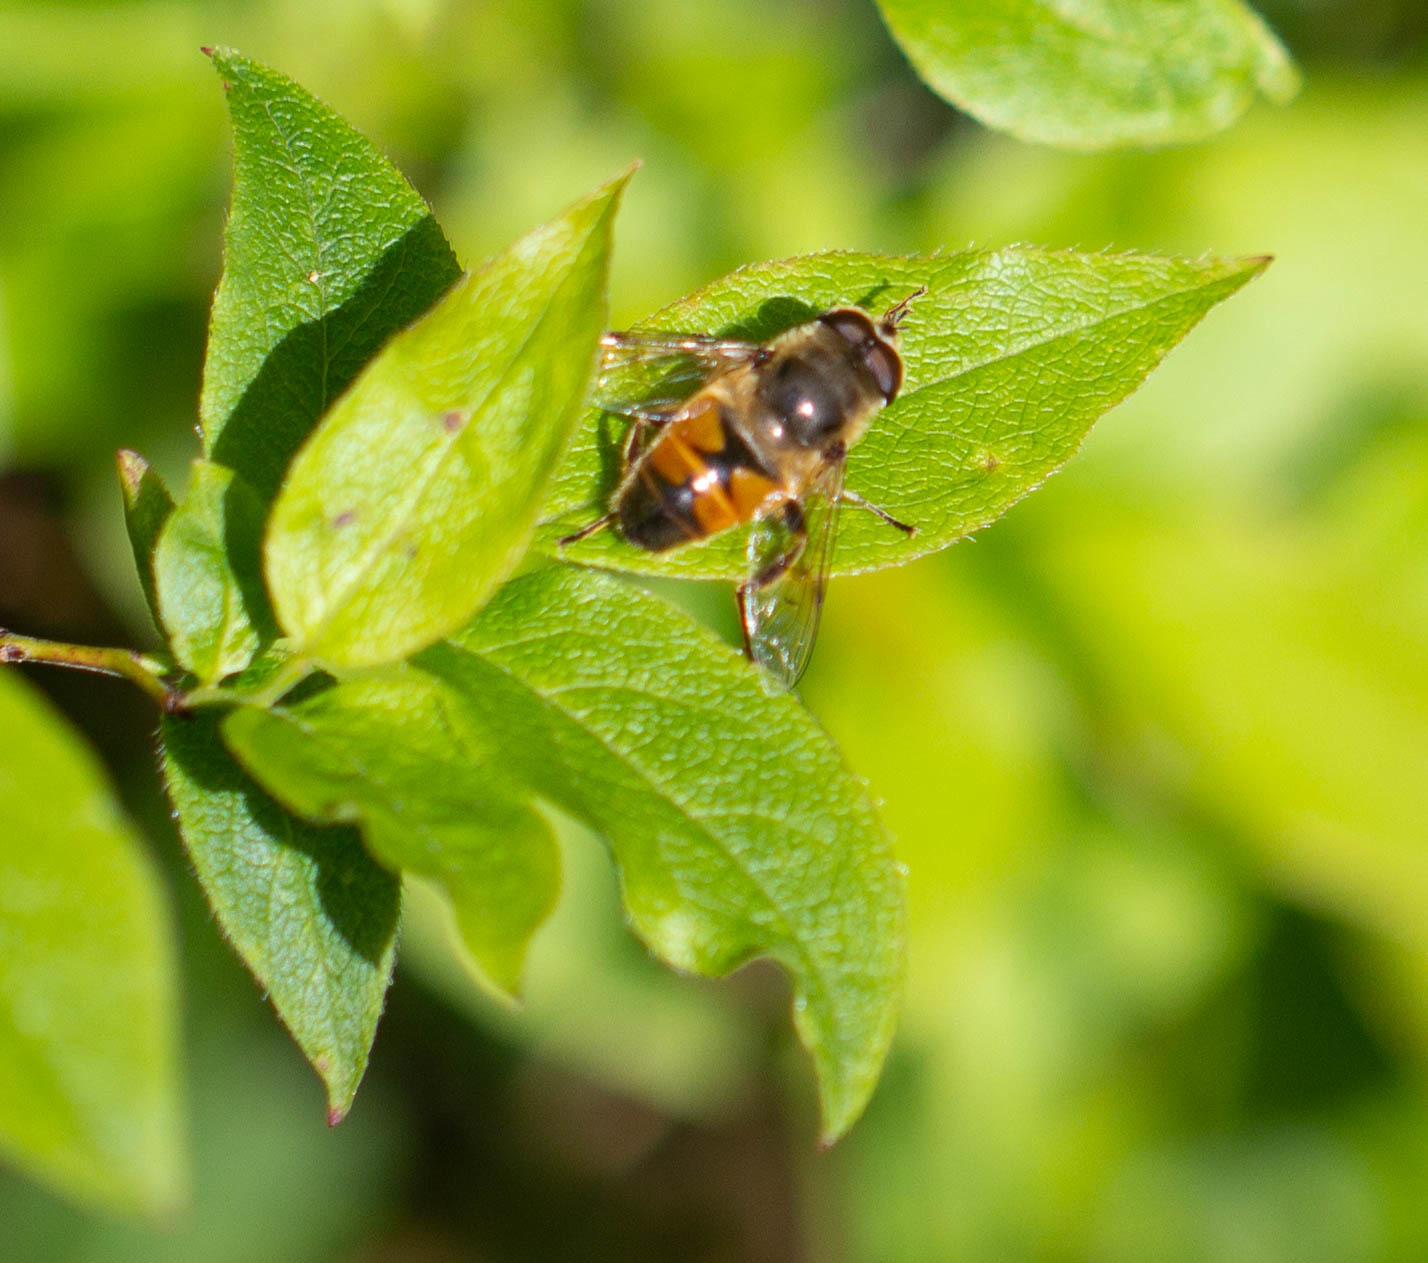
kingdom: Animalia
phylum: Arthropoda
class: Insecta
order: Diptera
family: Syrphidae
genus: Eristalis
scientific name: Eristalis tenax
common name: Drone fly
